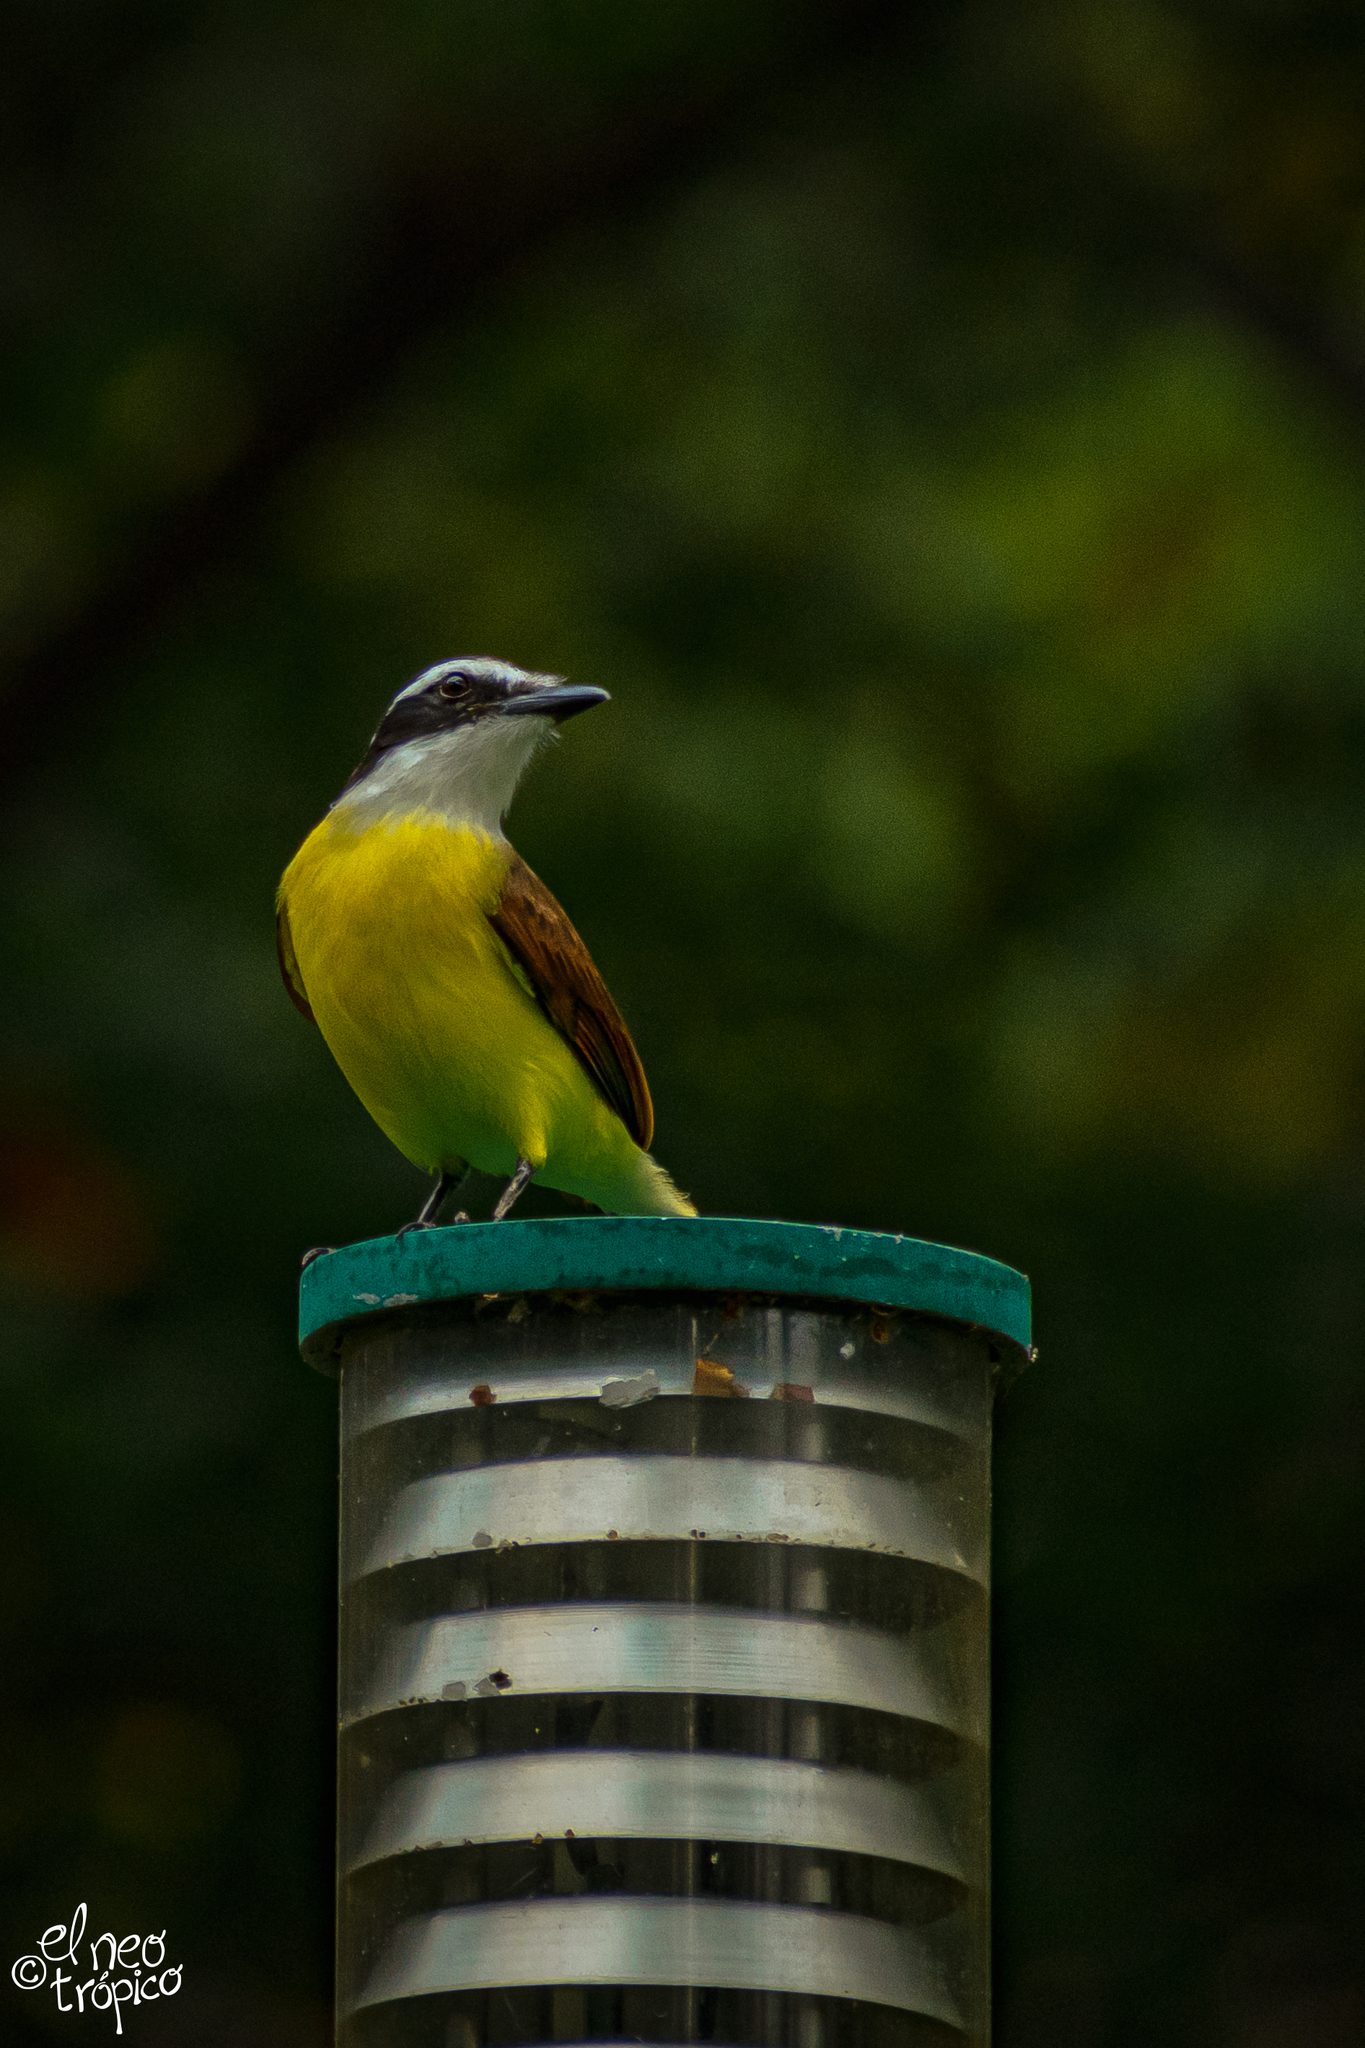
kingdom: Animalia
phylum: Chordata
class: Aves
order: Passeriformes
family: Tyrannidae
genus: Pitangus
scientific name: Pitangus sulphuratus
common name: Great kiskadee
